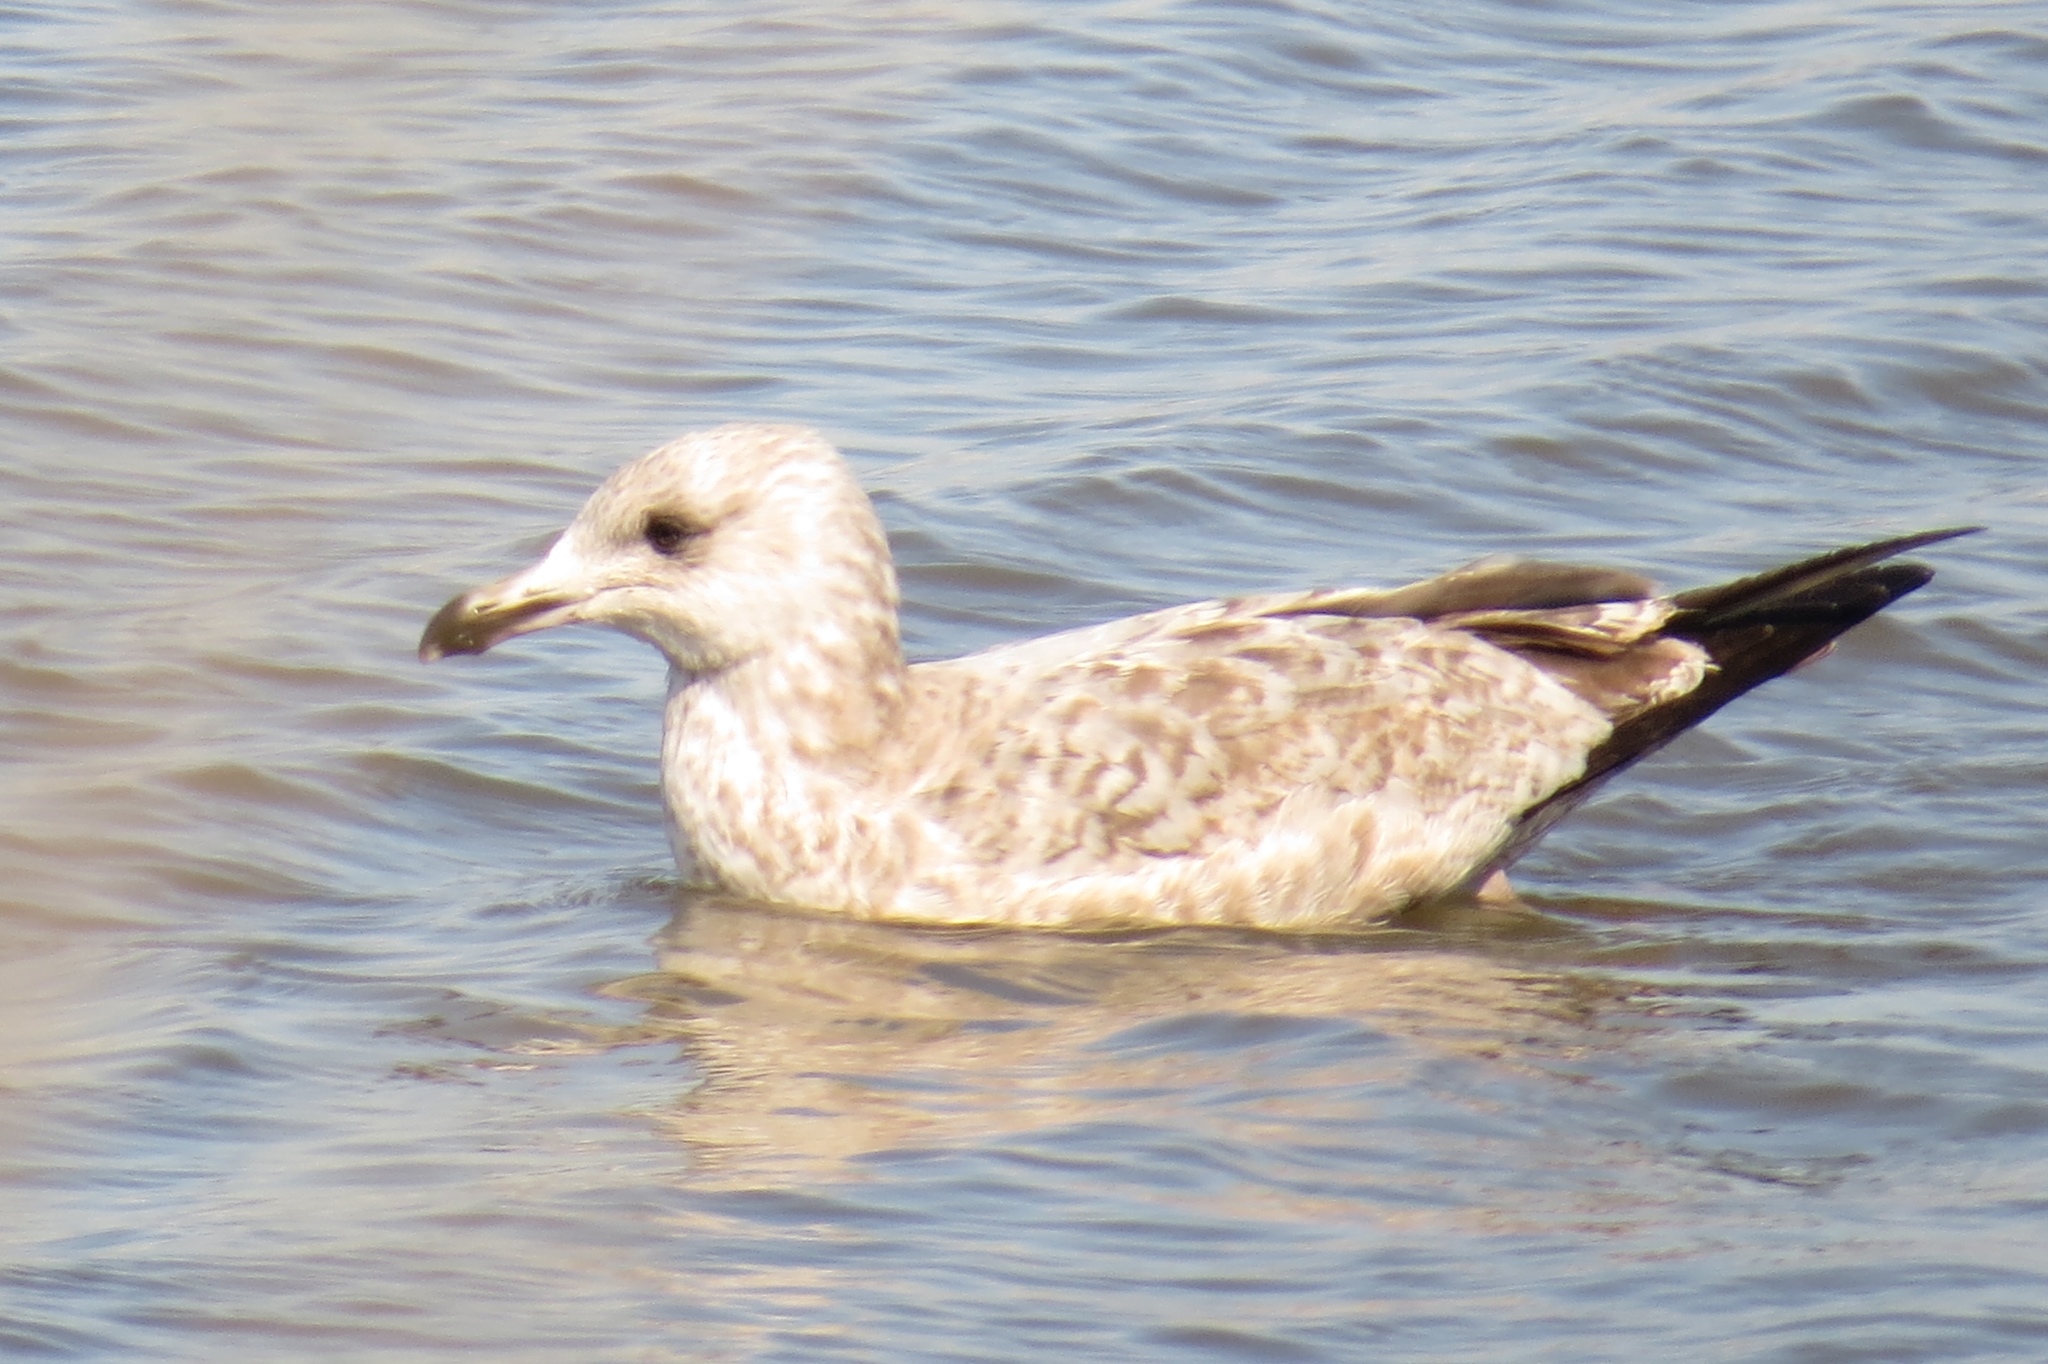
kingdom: Animalia
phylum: Chordata
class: Aves
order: Charadriiformes
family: Laridae
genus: Larus
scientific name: Larus argentatus
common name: Herring gull
